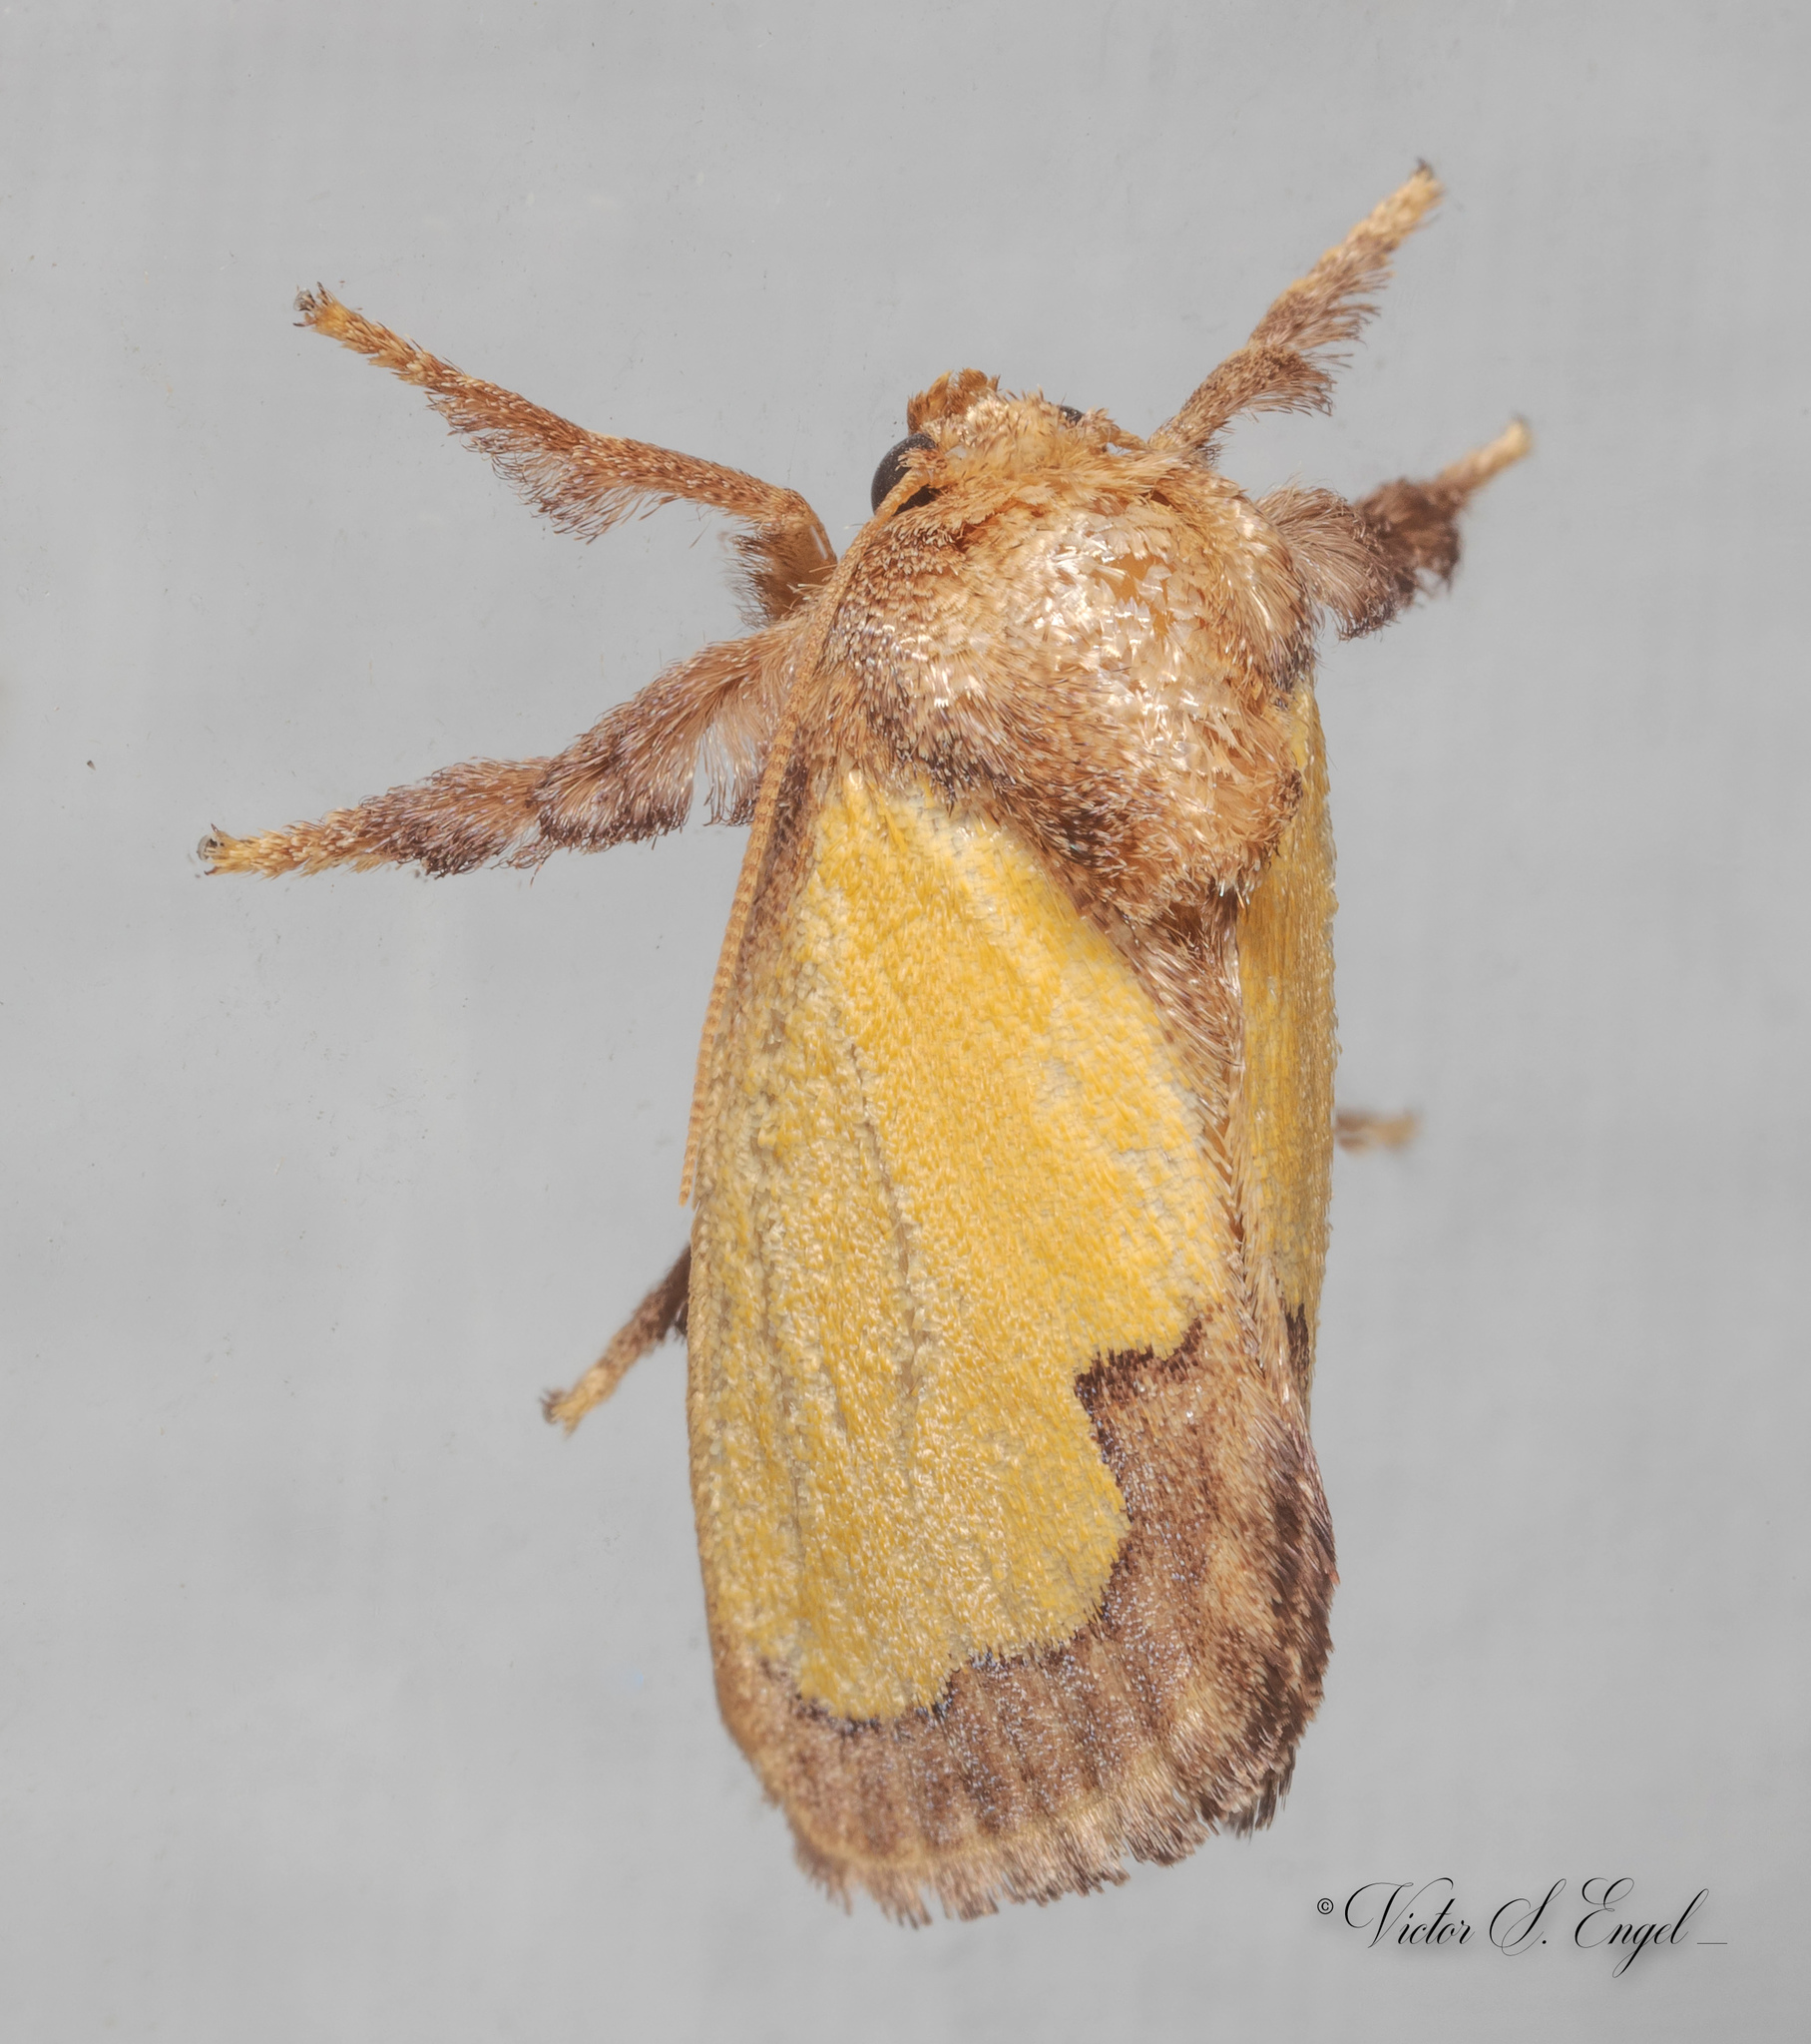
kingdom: Animalia
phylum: Arthropoda
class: Insecta
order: Lepidoptera
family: Limacodidae
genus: Euclea
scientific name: Euclea incisa
